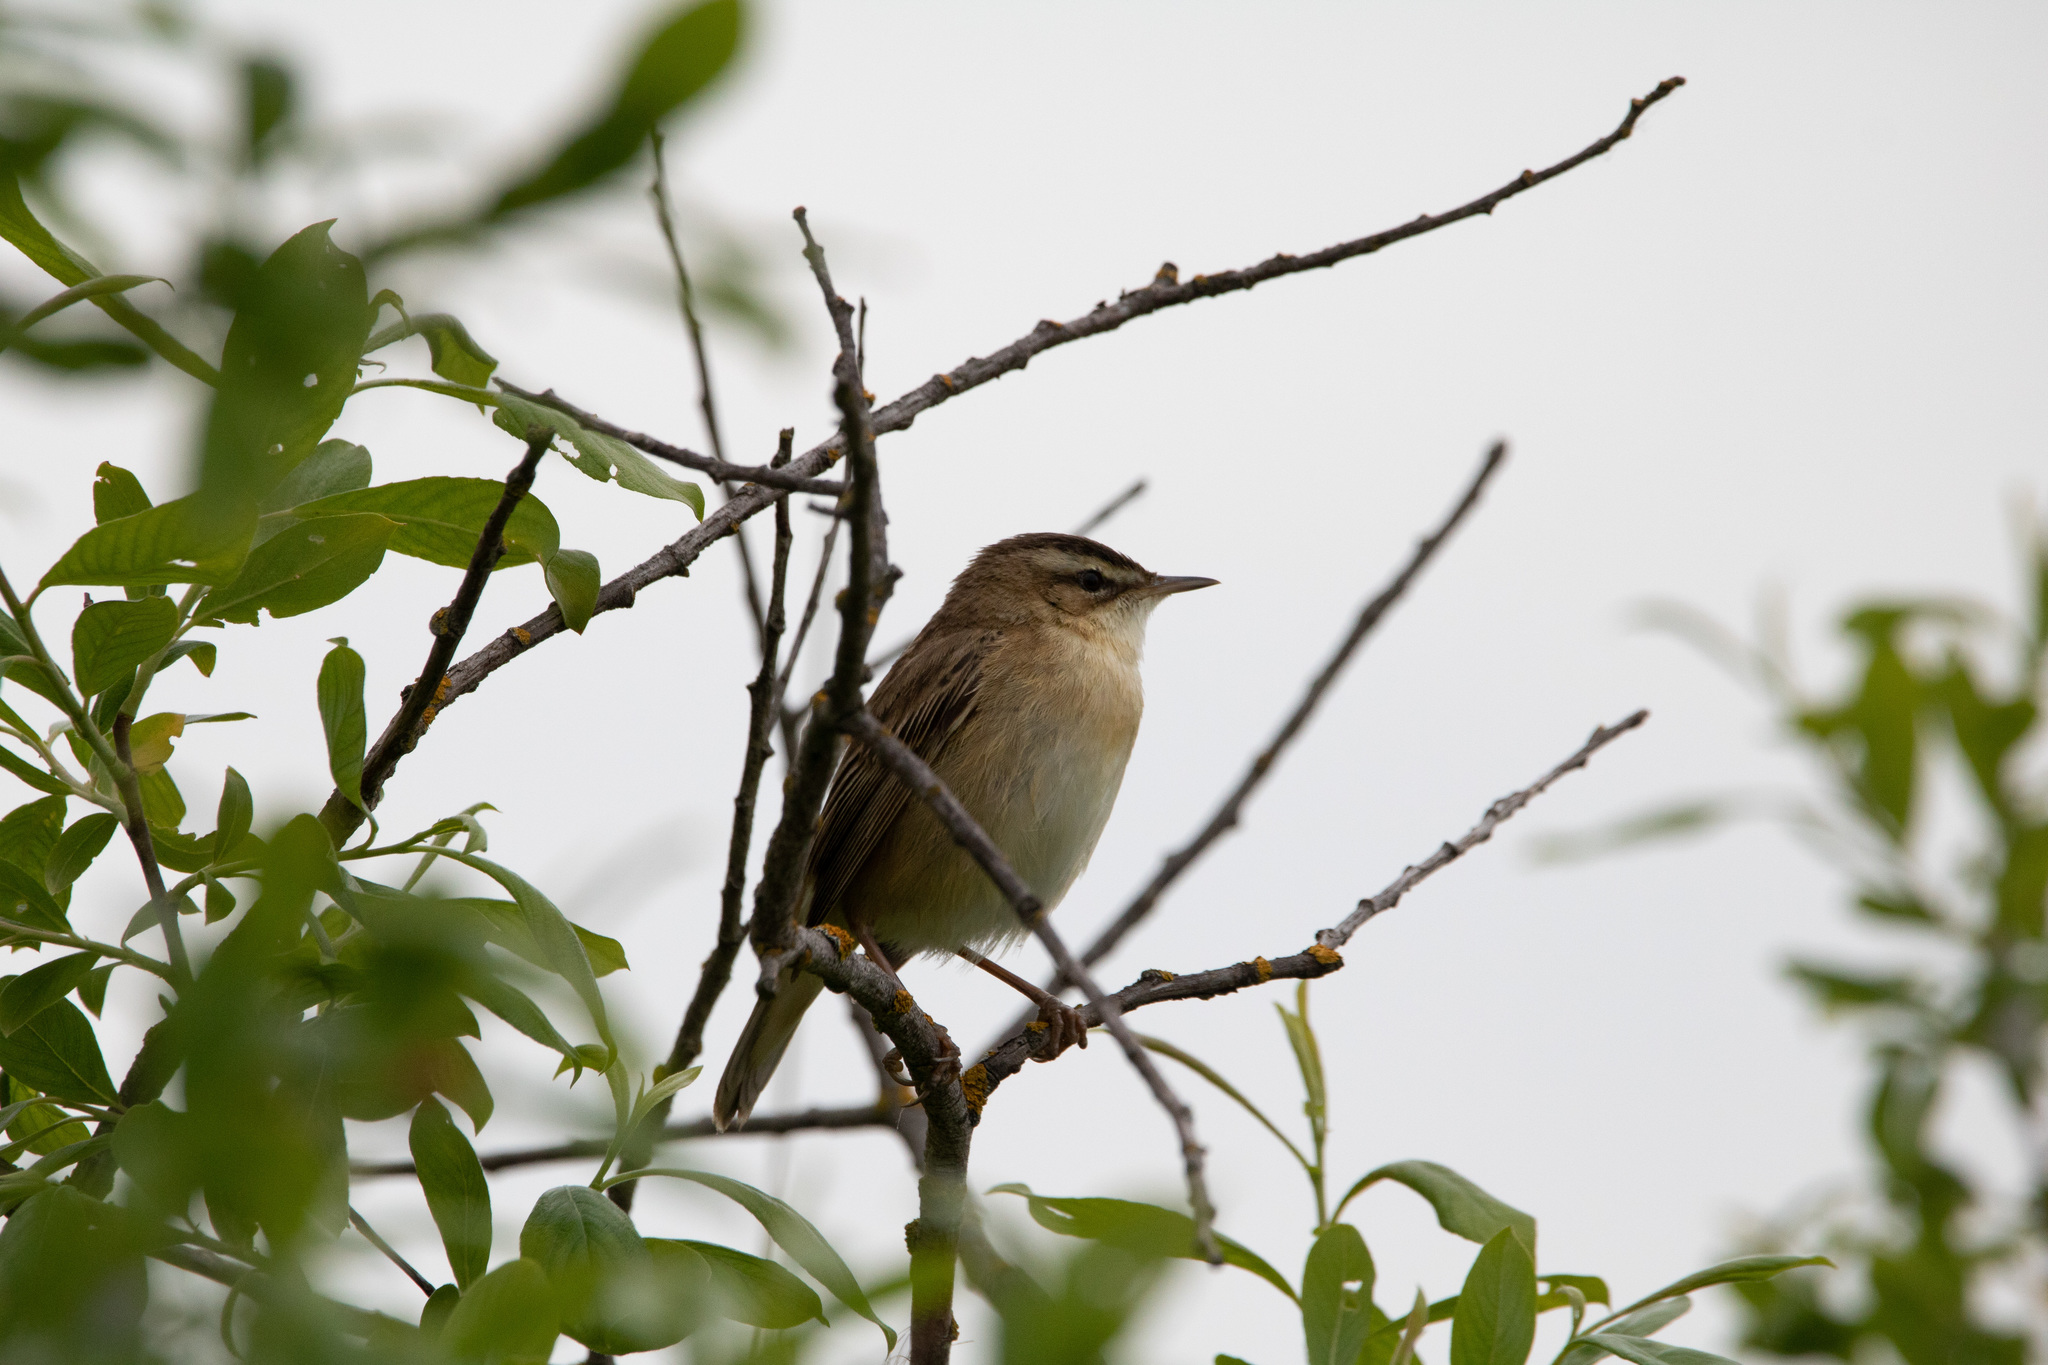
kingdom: Animalia
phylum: Chordata
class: Aves
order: Passeriformes
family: Acrocephalidae
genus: Acrocephalus
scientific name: Acrocephalus schoenobaenus
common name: Sedge warbler
